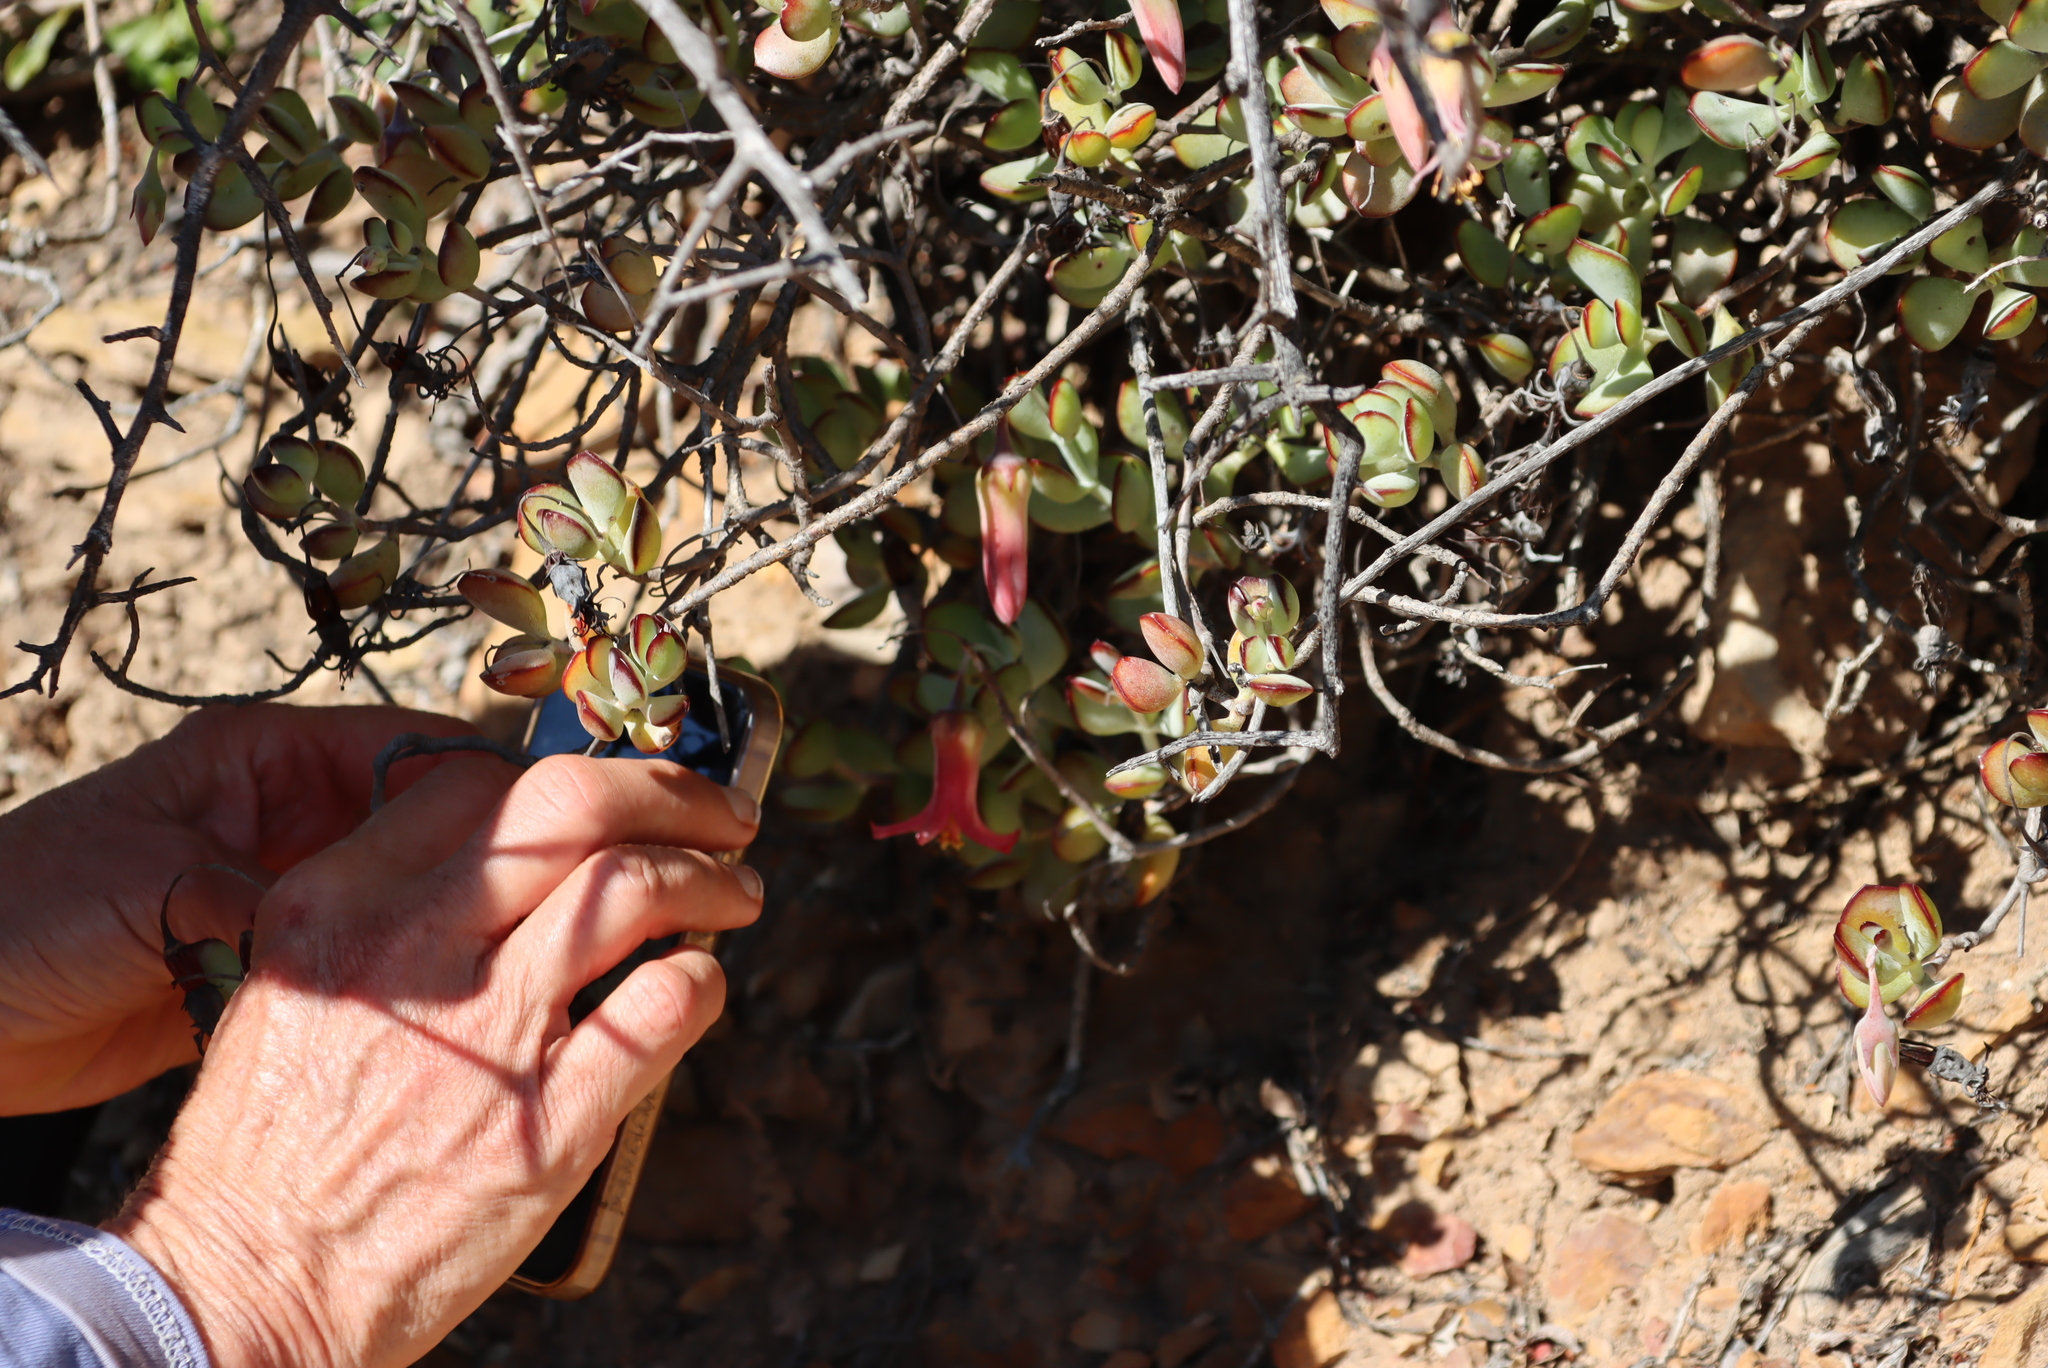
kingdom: Plantae
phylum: Tracheophyta
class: Magnoliopsida
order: Saxifragales
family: Crassulaceae
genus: Cotyledon
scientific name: Cotyledon woodii
